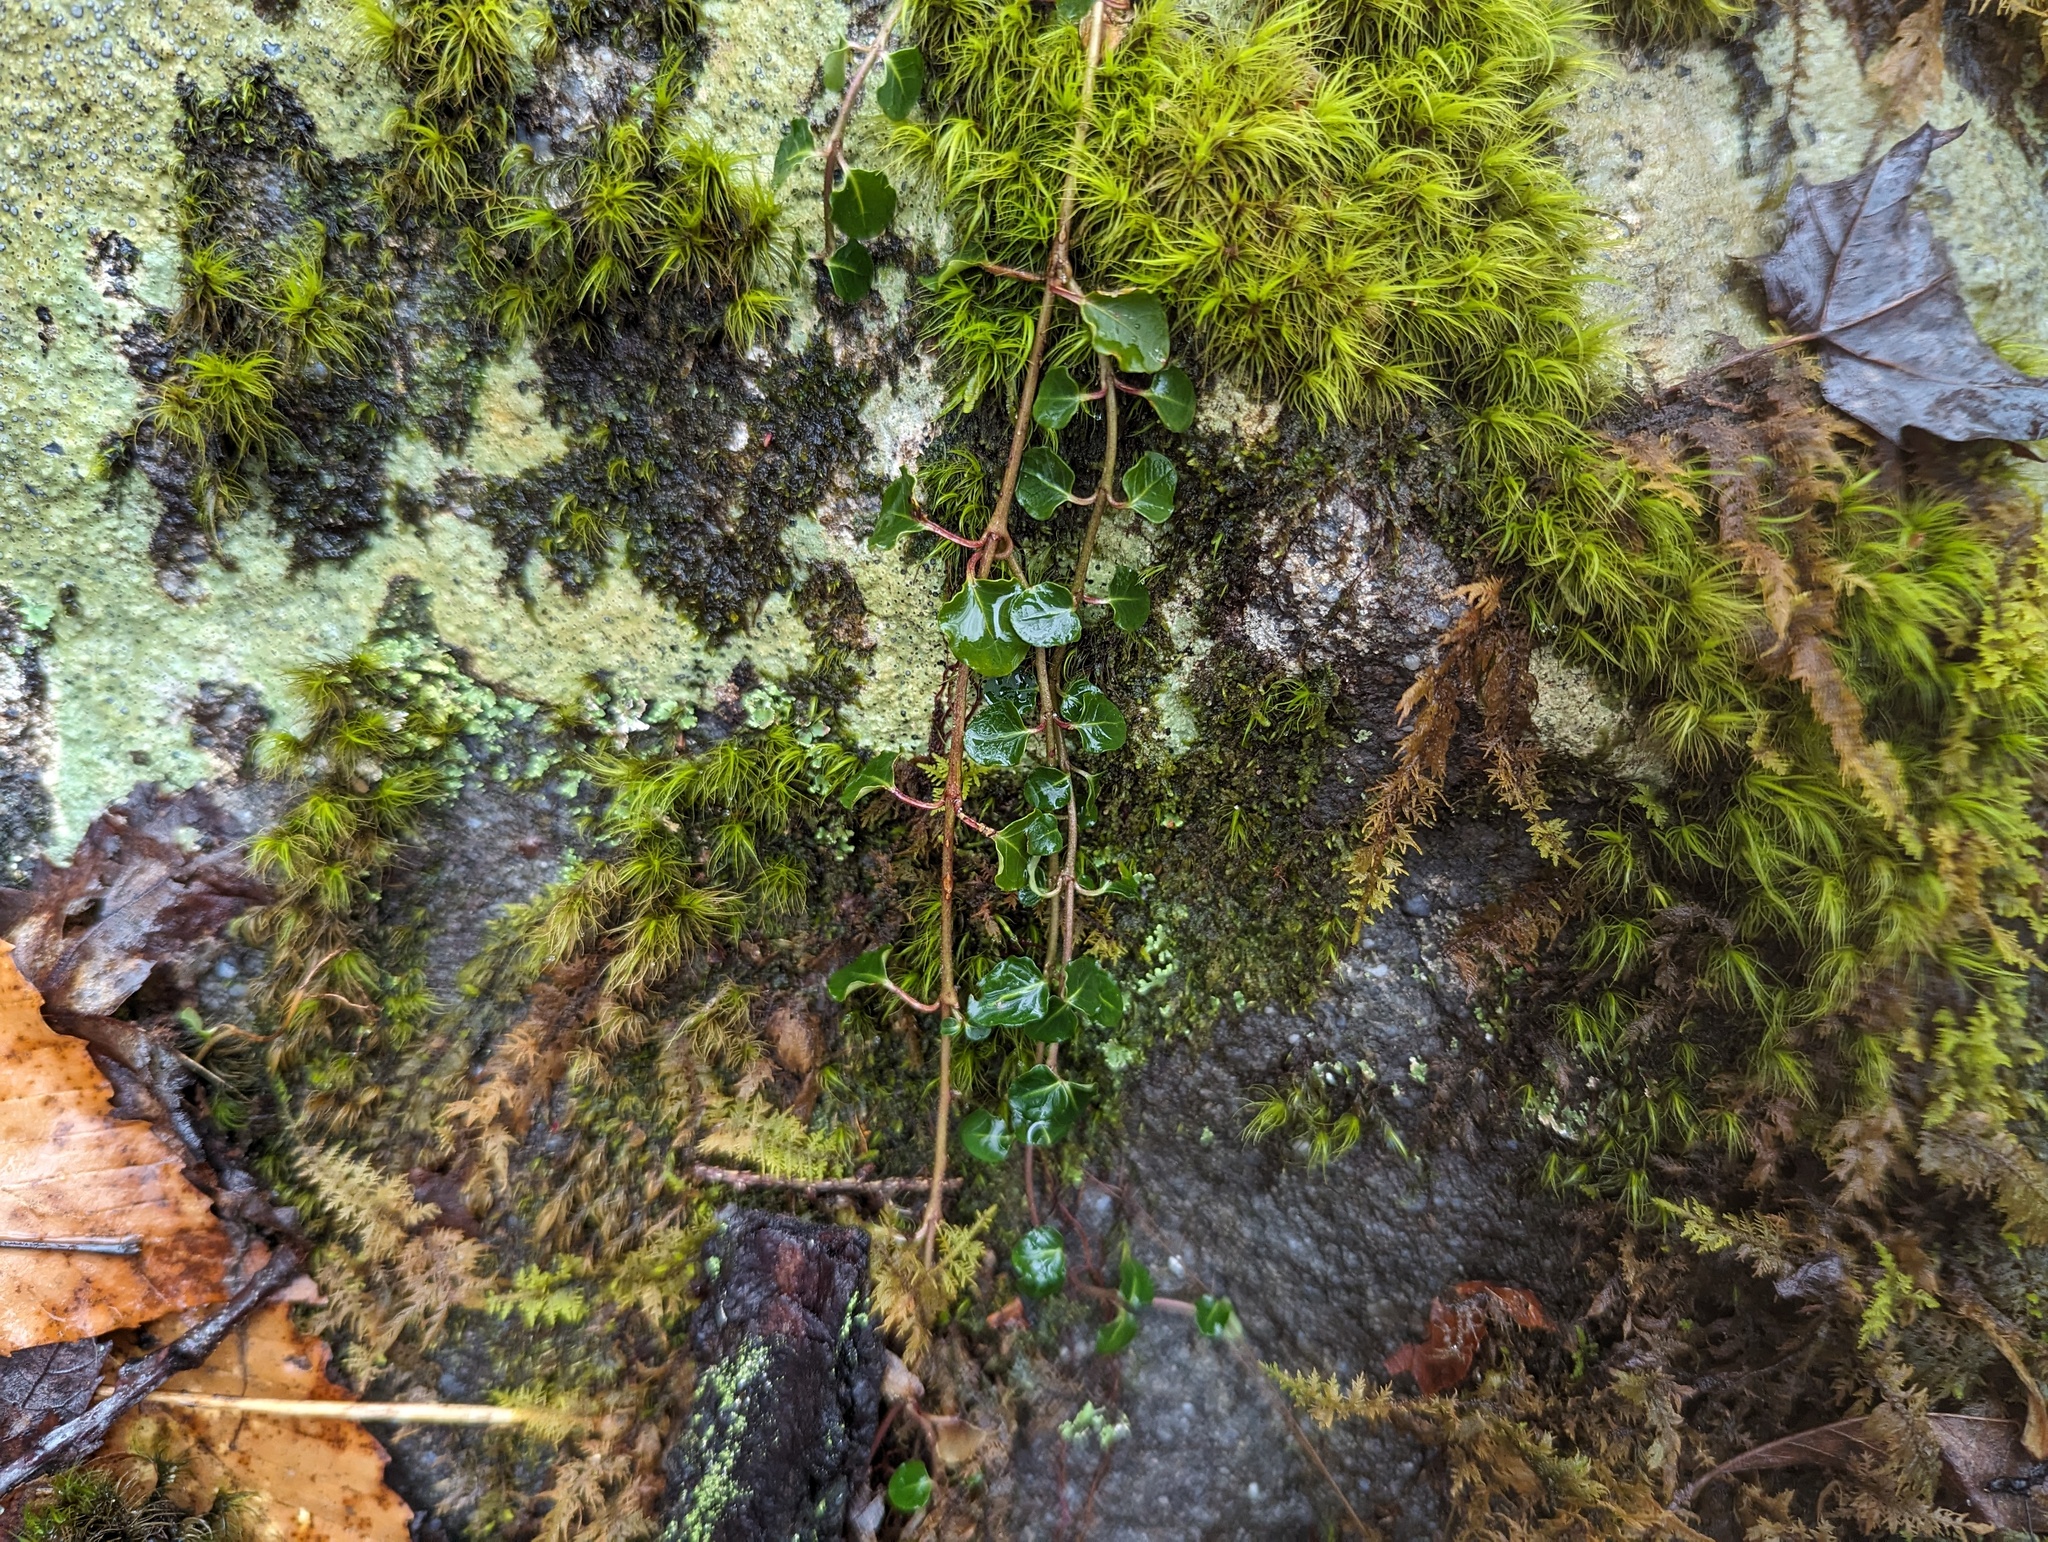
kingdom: Plantae
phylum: Tracheophyta
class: Magnoliopsida
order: Gentianales
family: Rubiaceae
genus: Mitchella
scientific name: Mitchella repens
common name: Partridge-berry
